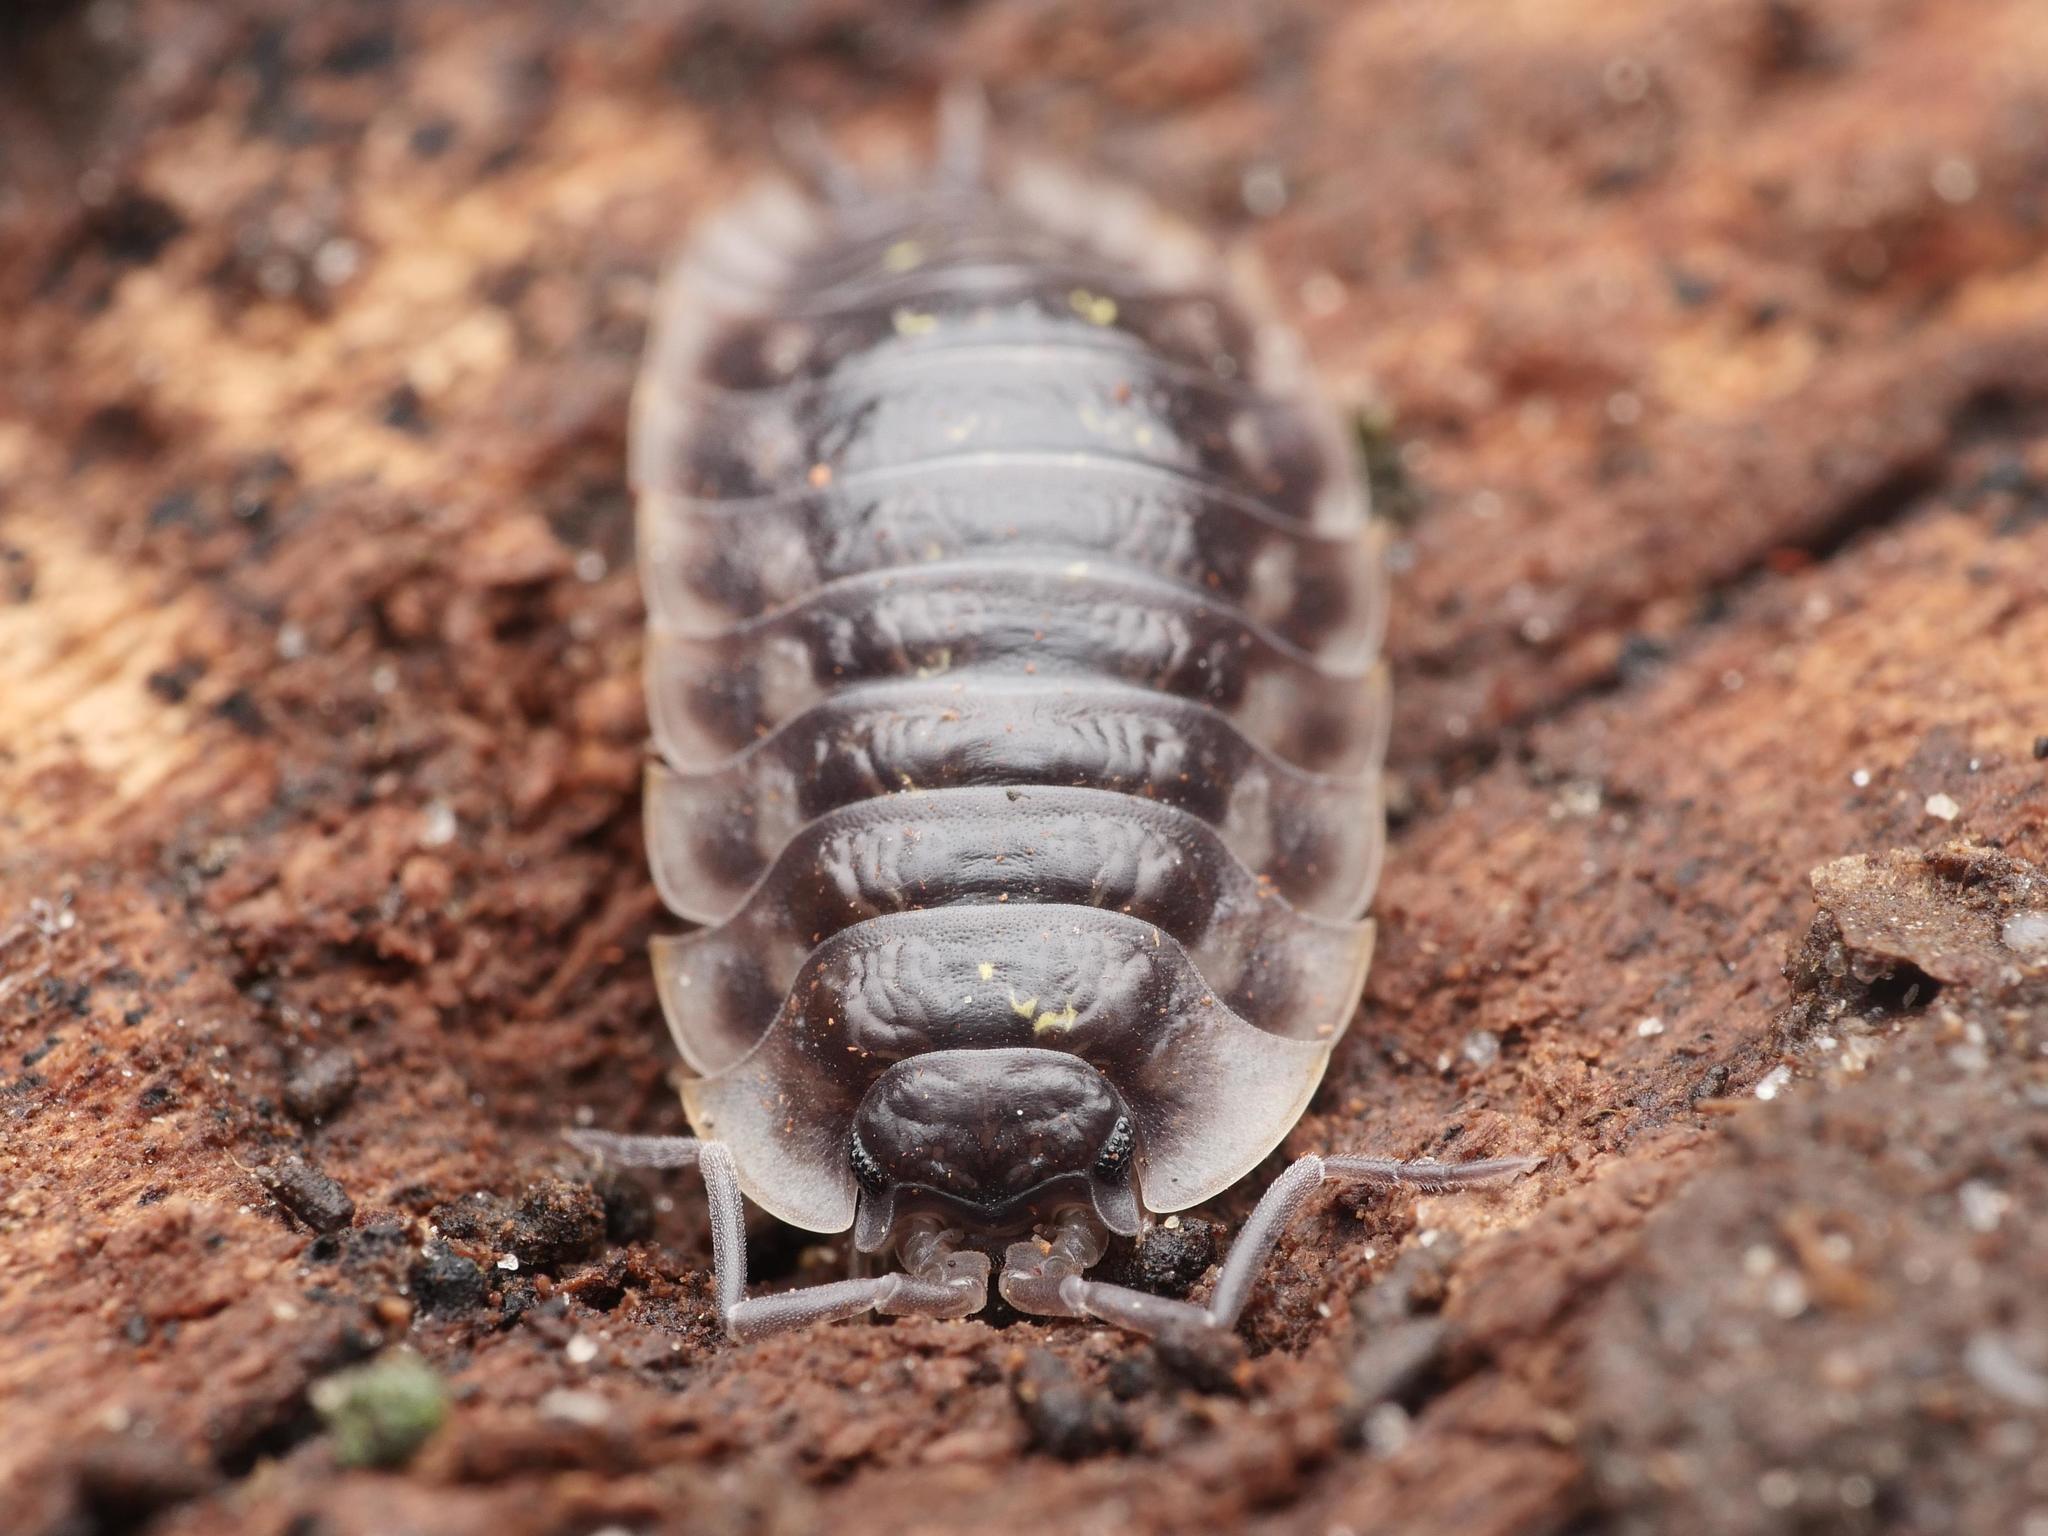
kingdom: Animalia
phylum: Arthropoda
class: Malacostraca
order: Isopoda
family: Oniscidae
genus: Oniscus
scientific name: Oniscus asellus
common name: Common shiny woodlouse
